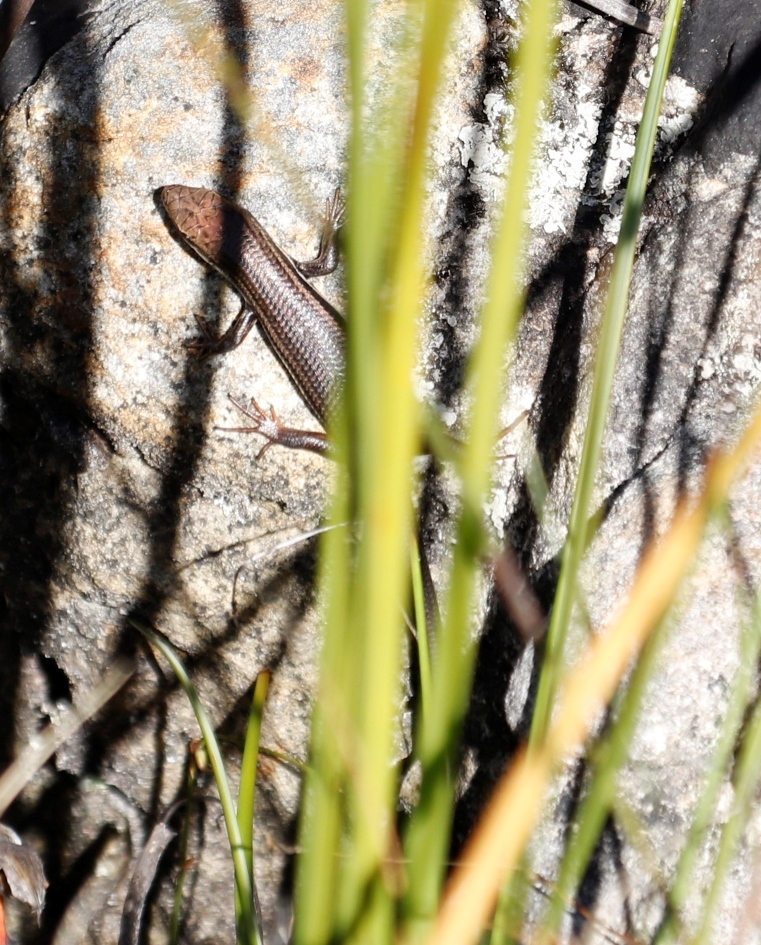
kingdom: Animalia
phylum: Chordata
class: Squamata
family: Scincidae
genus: Trachylepis
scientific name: Trachylepis homalocephala
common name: Red-sided skink
